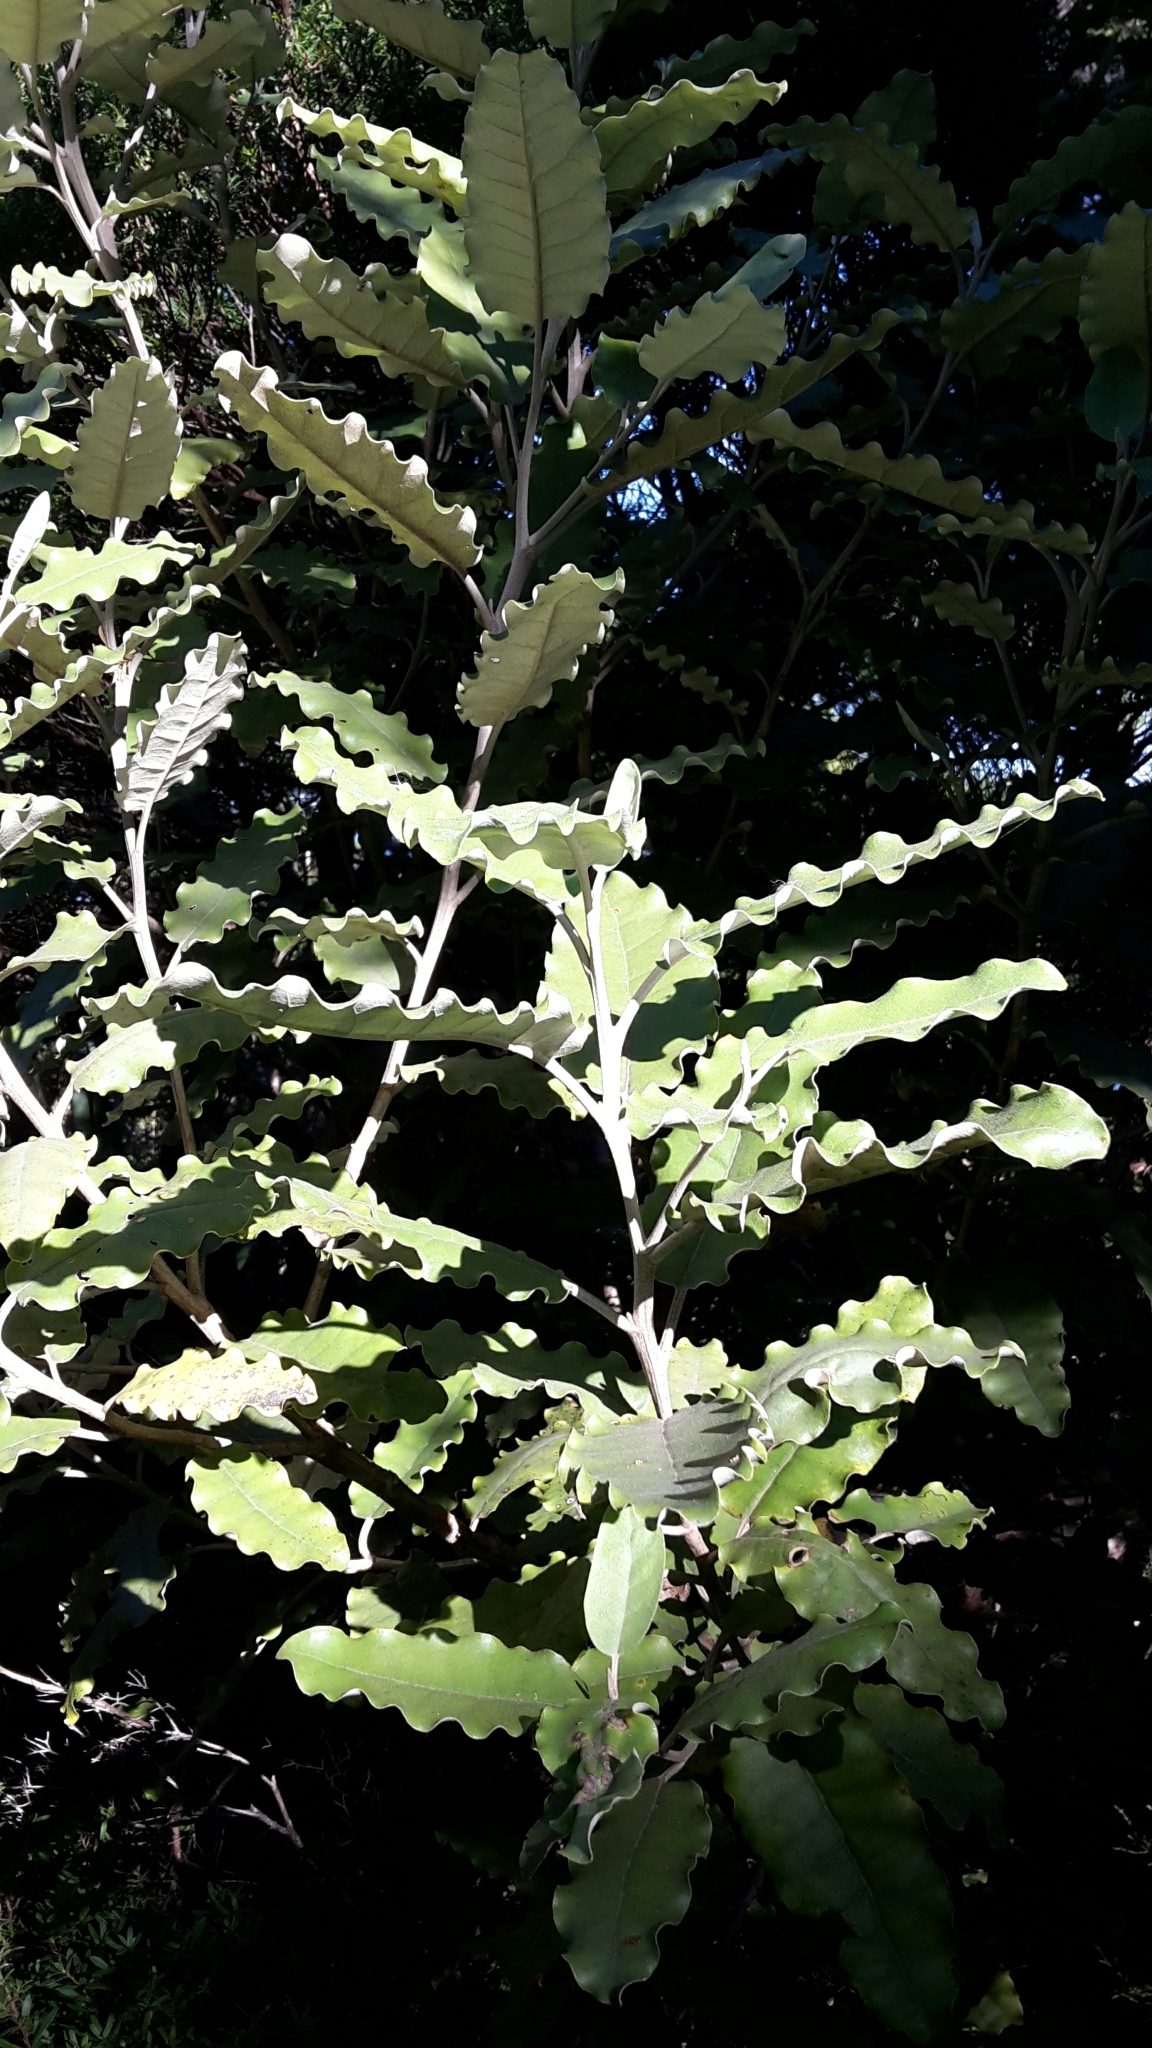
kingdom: Plantae
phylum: Tracheophyta
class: Magnoliopsida
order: Asterales
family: Asteraceae
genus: Olearia
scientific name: Olearia angulata
